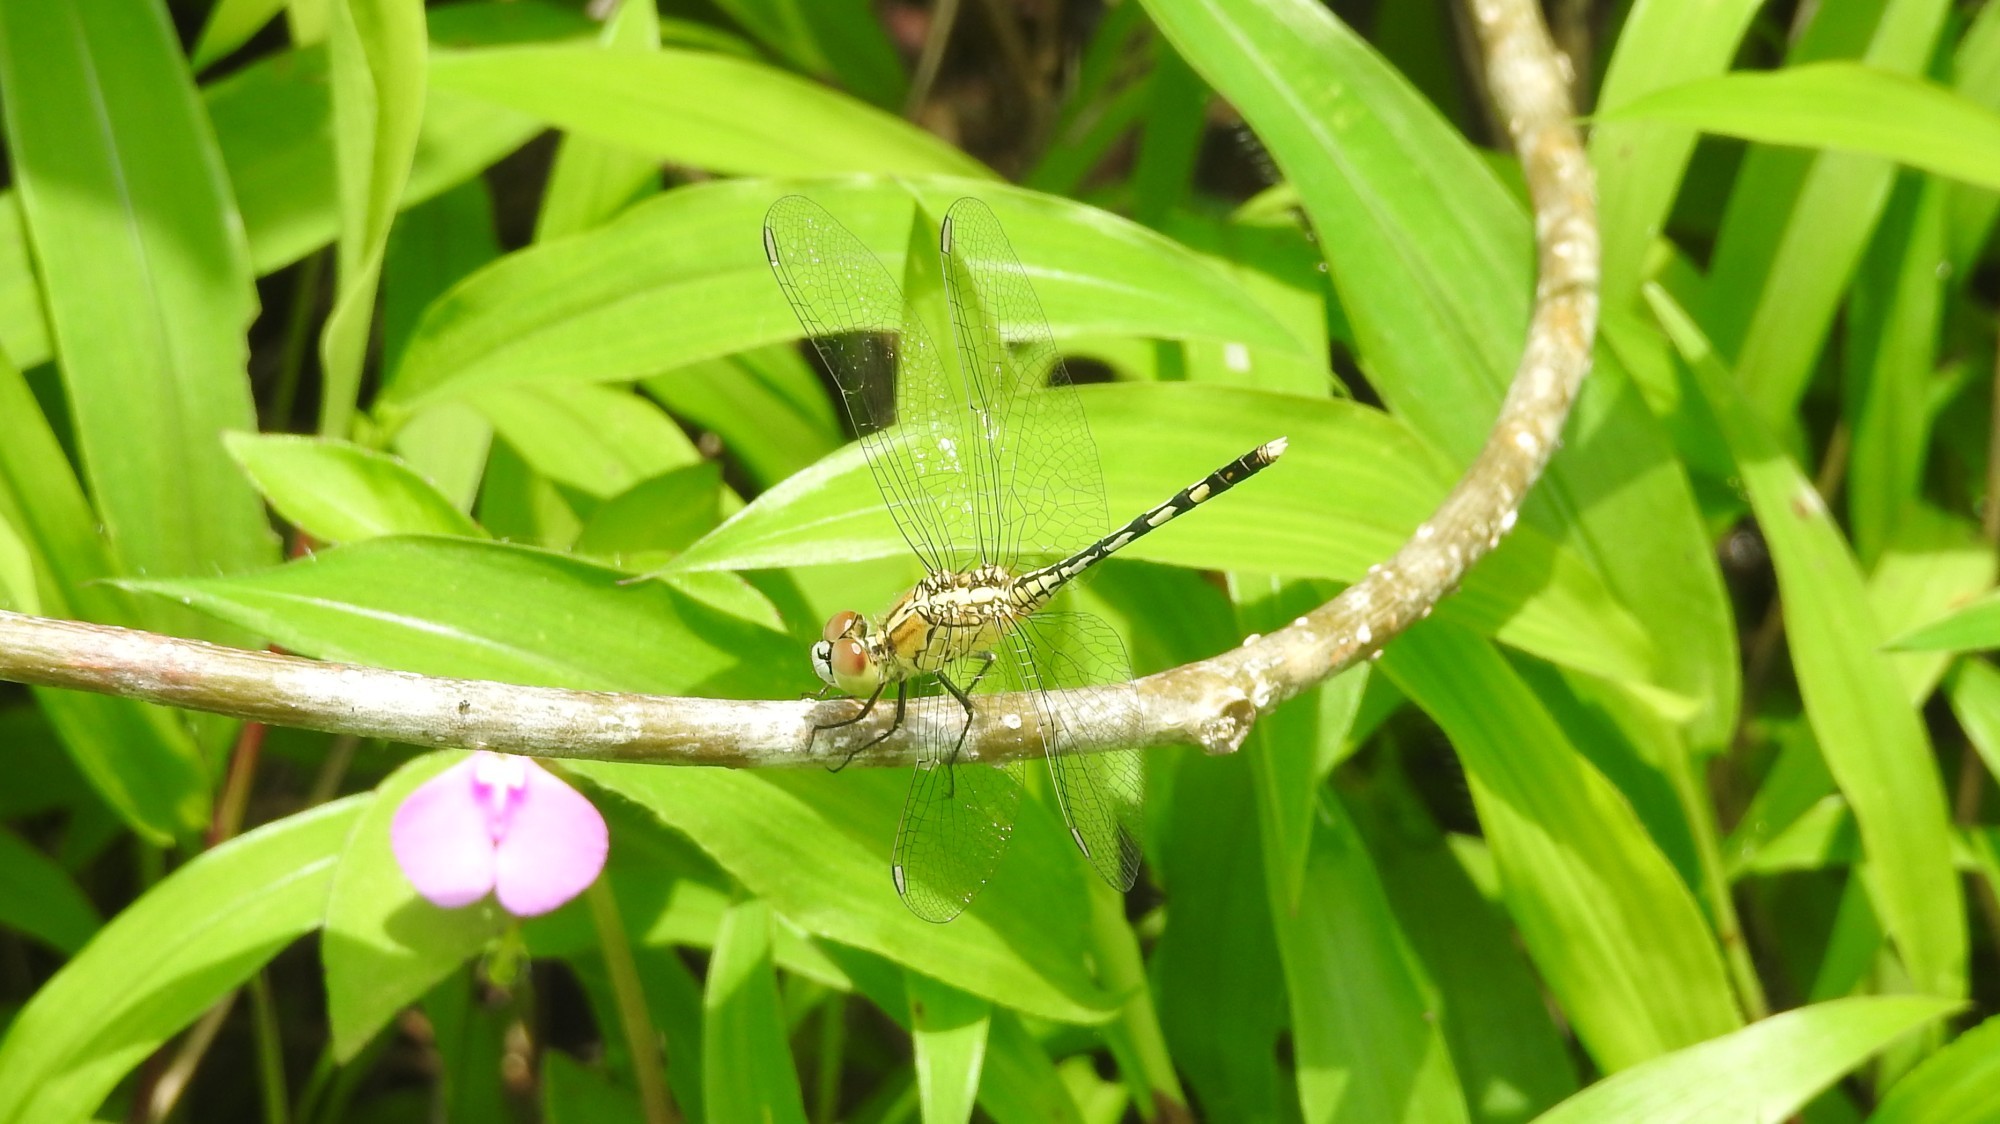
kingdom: Animalia
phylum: Arthropoda
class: Insecta
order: Odonata
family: Libellulidae
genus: Diplacodes
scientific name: Diplacodes trivialis
